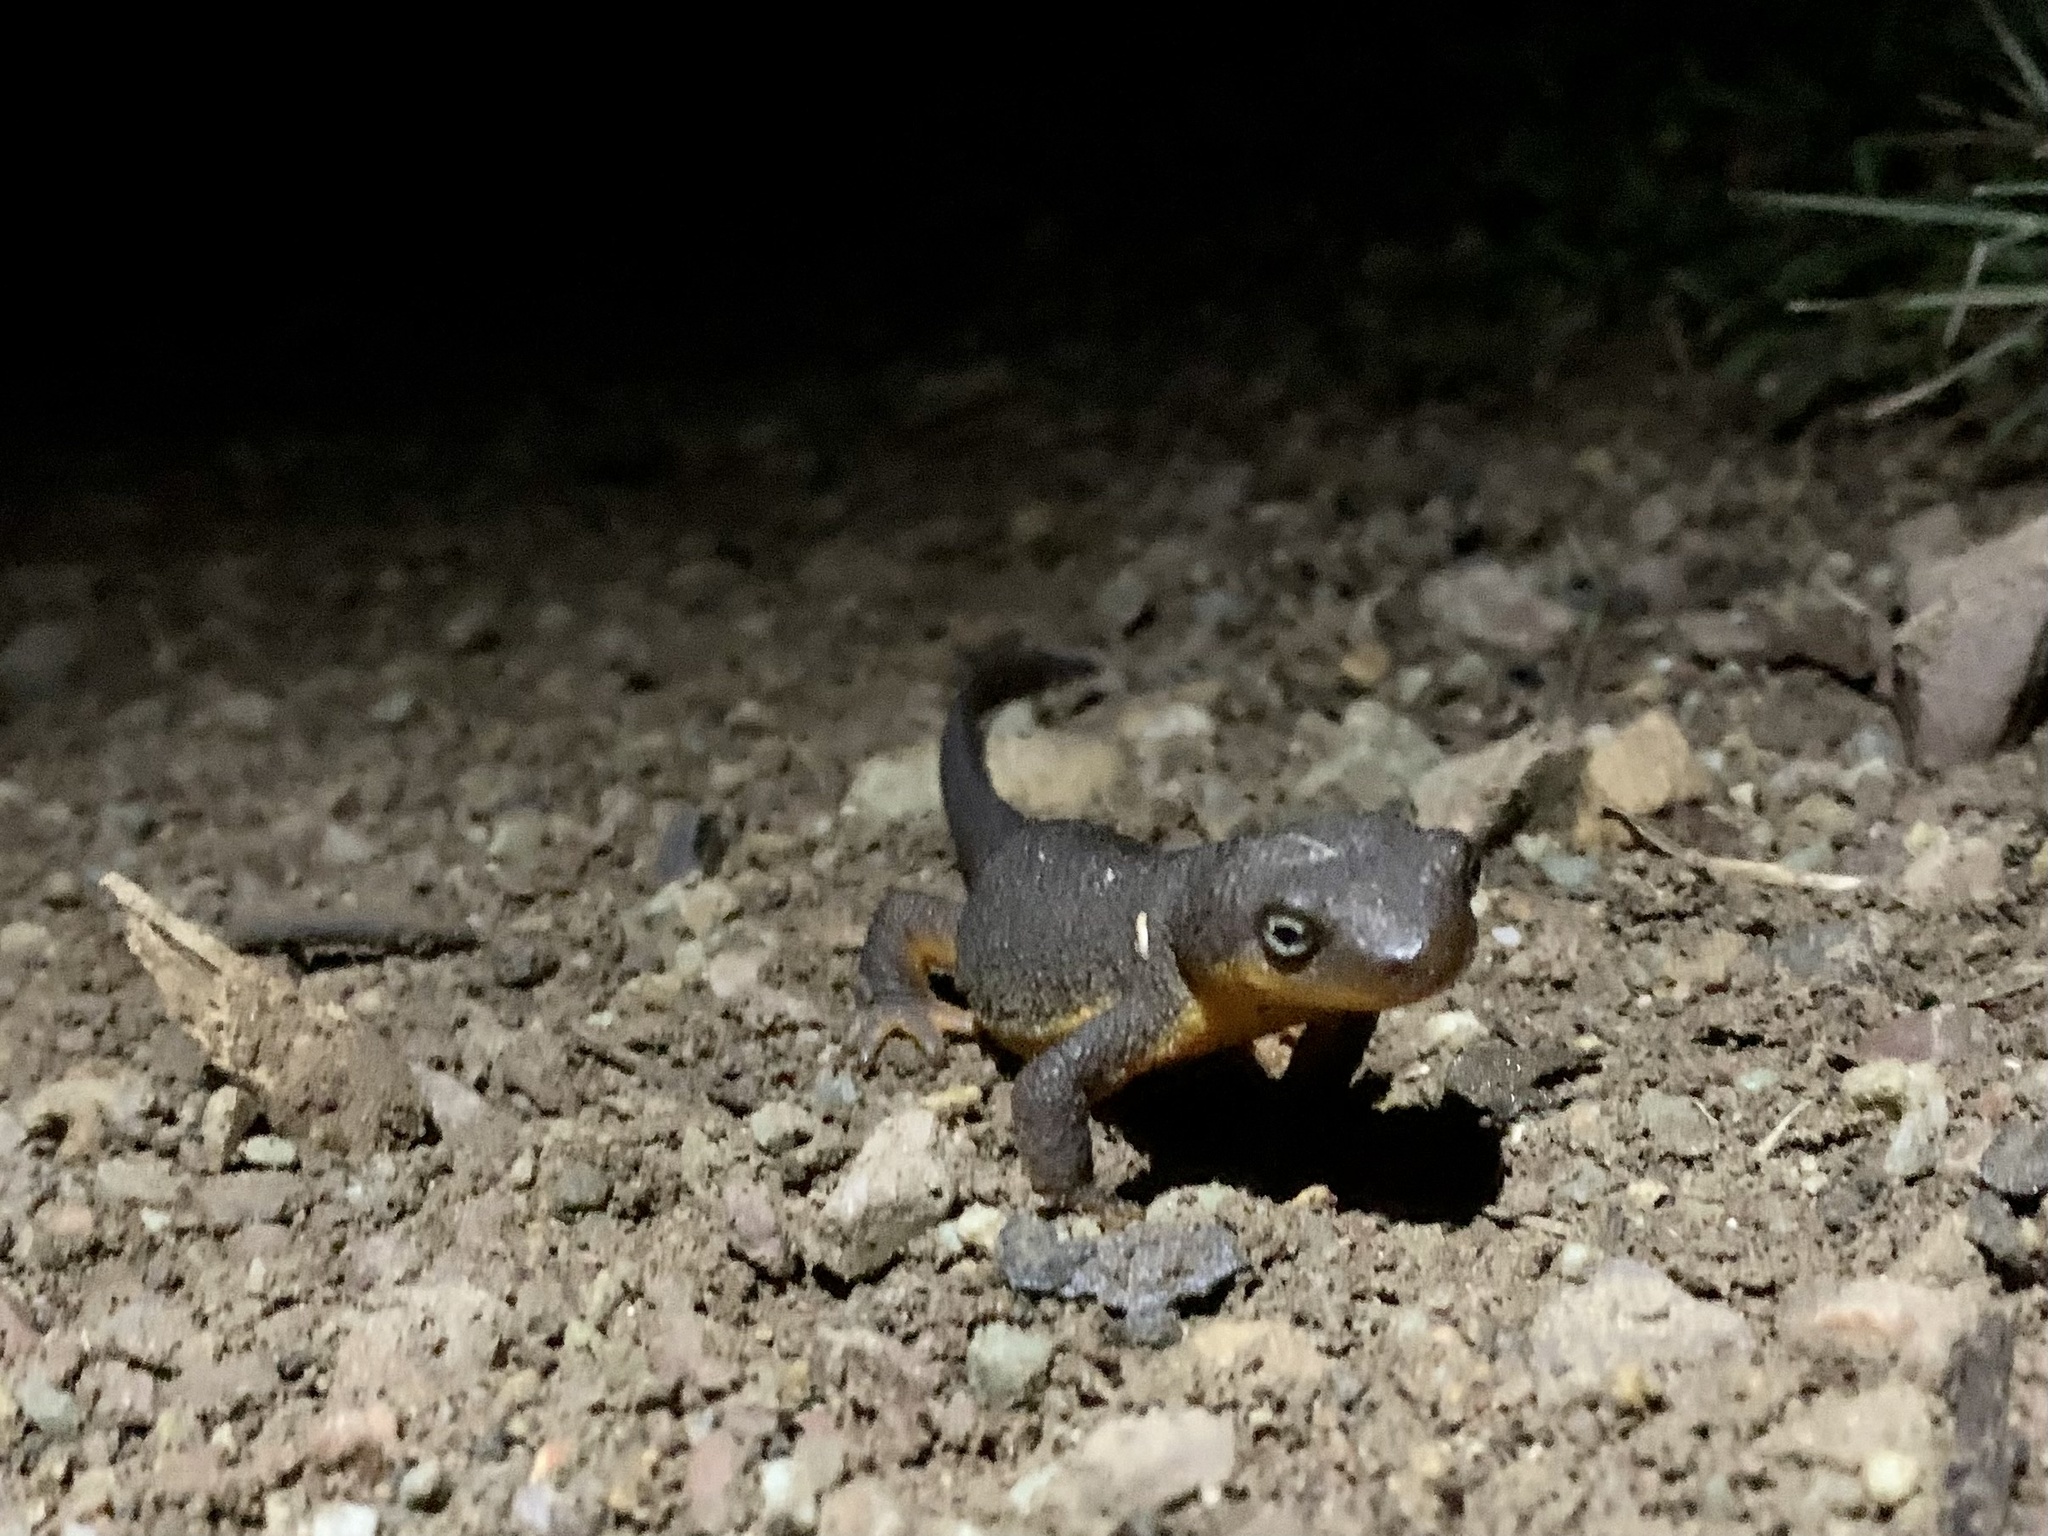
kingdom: Animalia
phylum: Chordata
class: Amphibia
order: Caudata
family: Salamandridae
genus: Taricha
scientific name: Taricha torosa
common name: California newt
